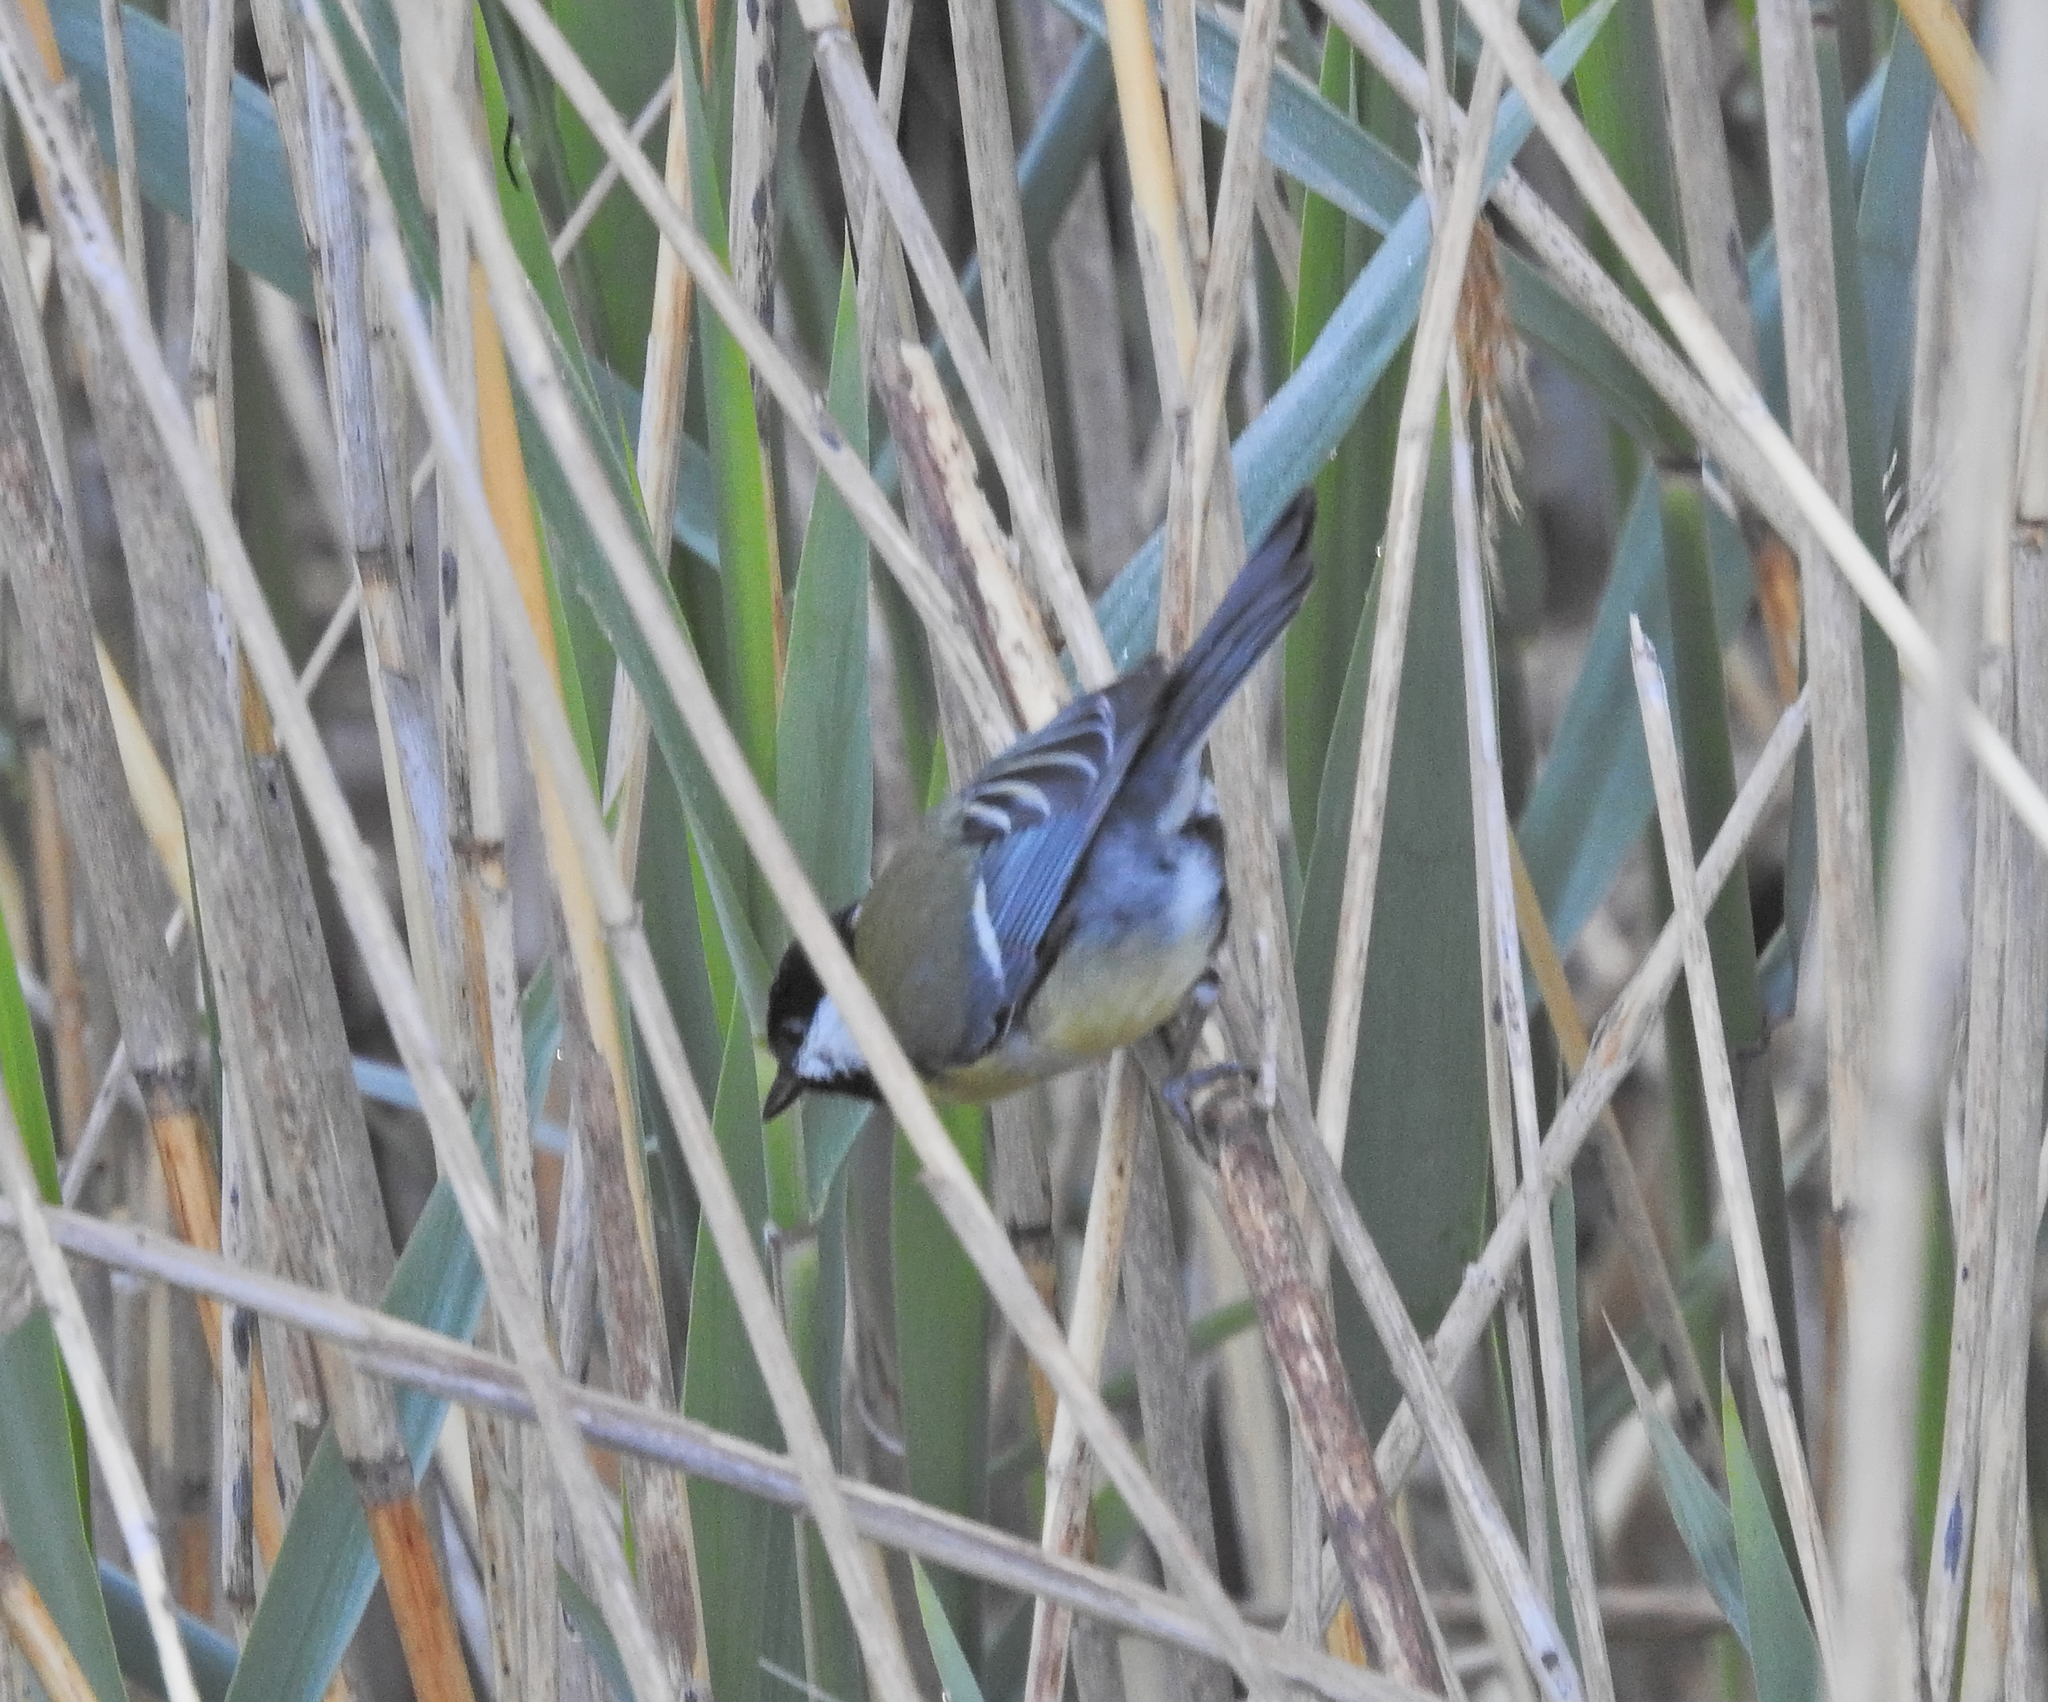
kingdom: Animalia
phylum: Chordata
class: Aves
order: Passeriformes
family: Paridae
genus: Parus
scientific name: Parus major
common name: Great tit
